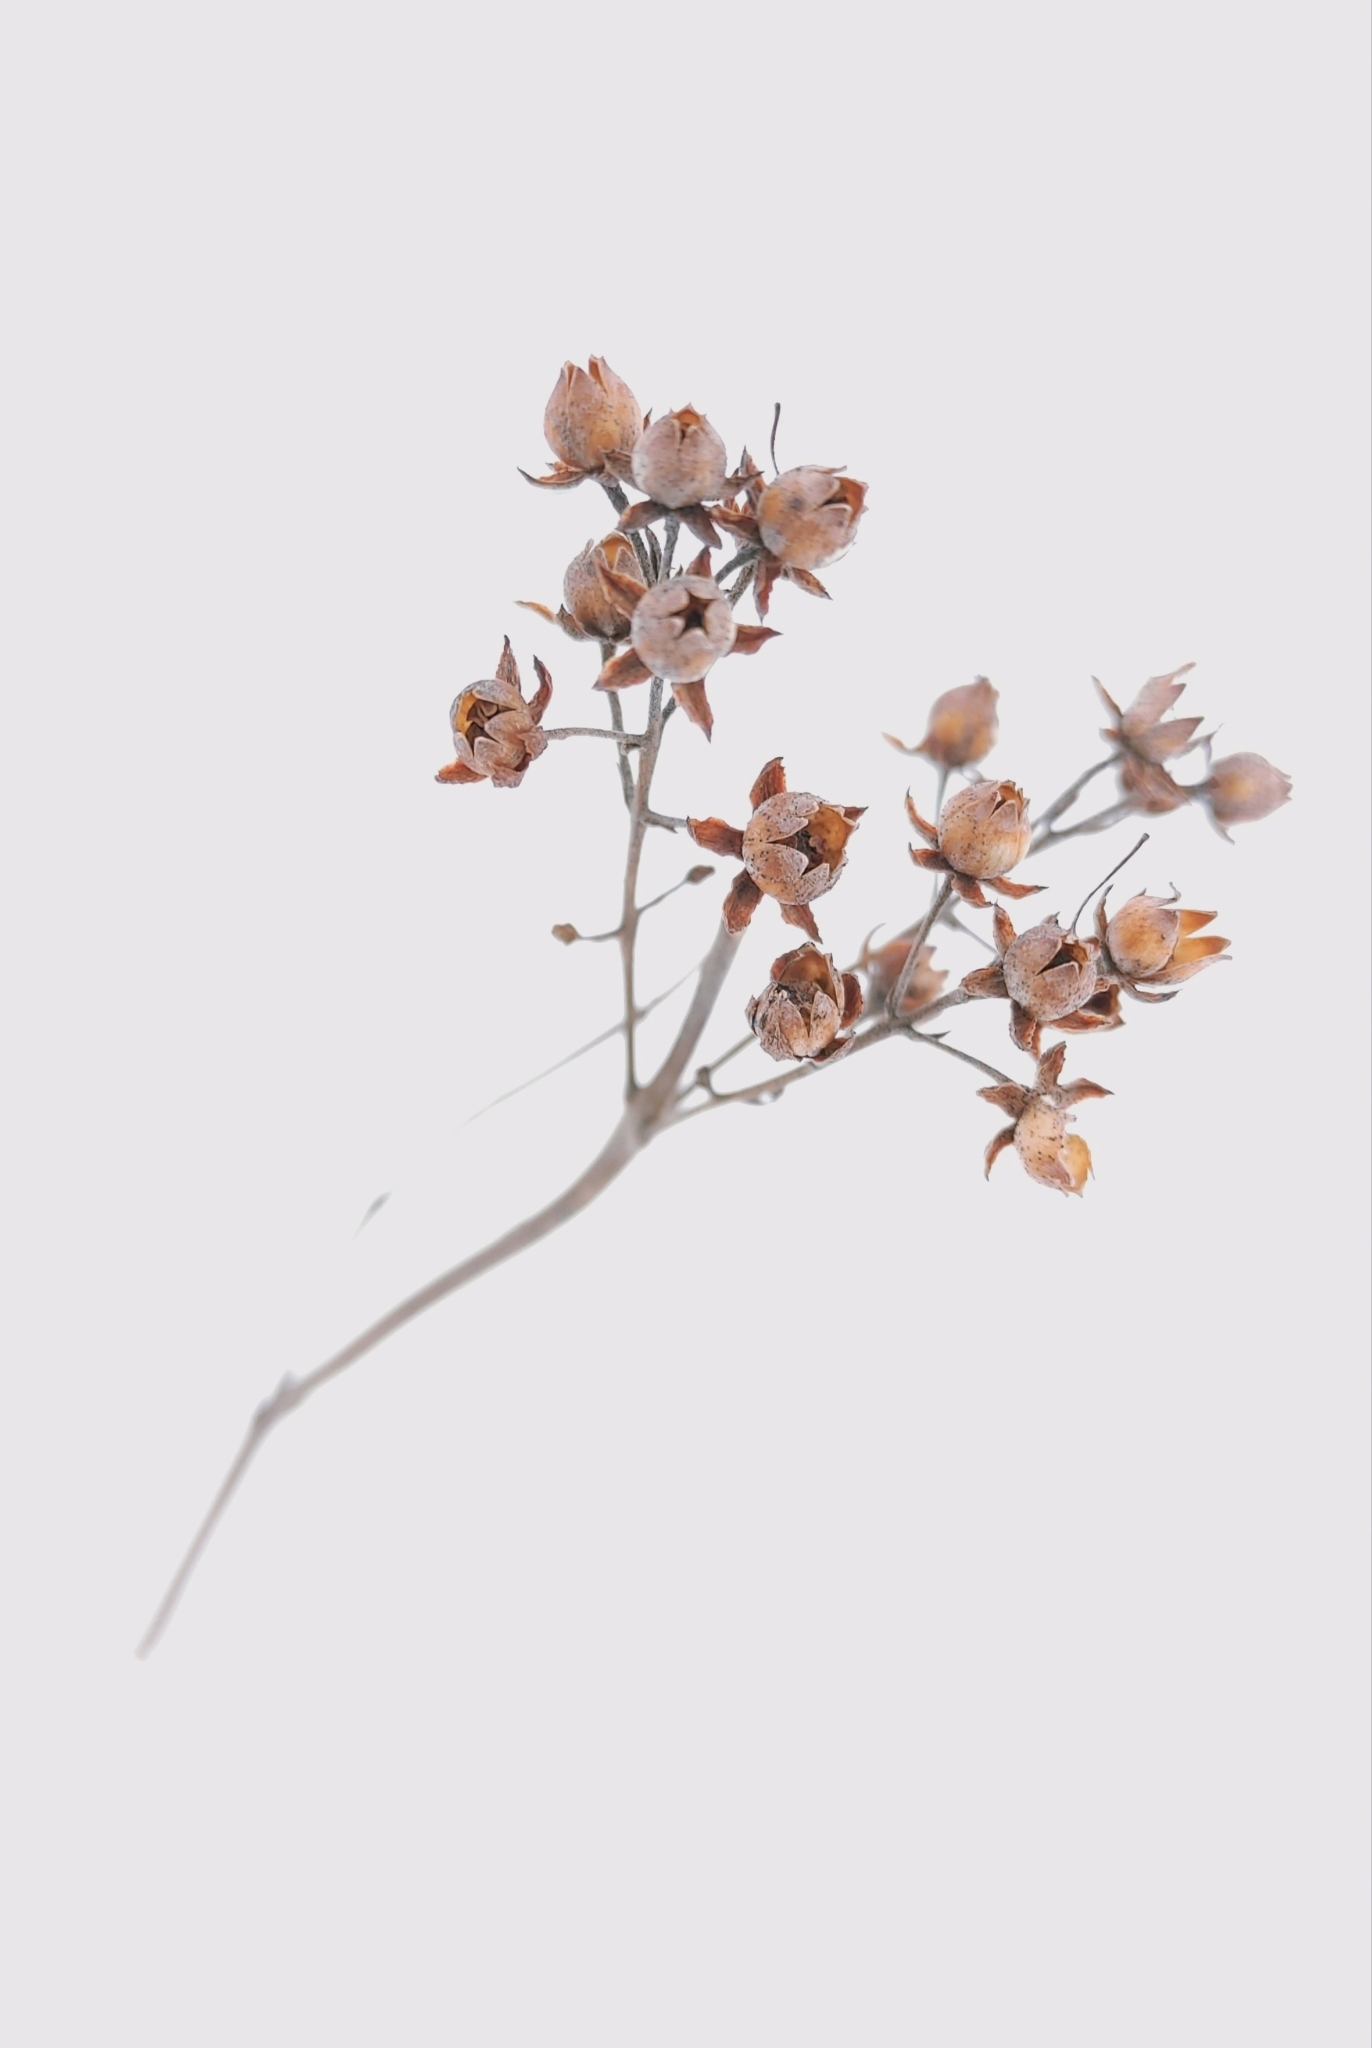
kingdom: Plantae
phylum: Tracheophyta
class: Magnoliopsida
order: Ericales
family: Primulaceae
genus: Lysimachia
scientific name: Lysimachia davurica
